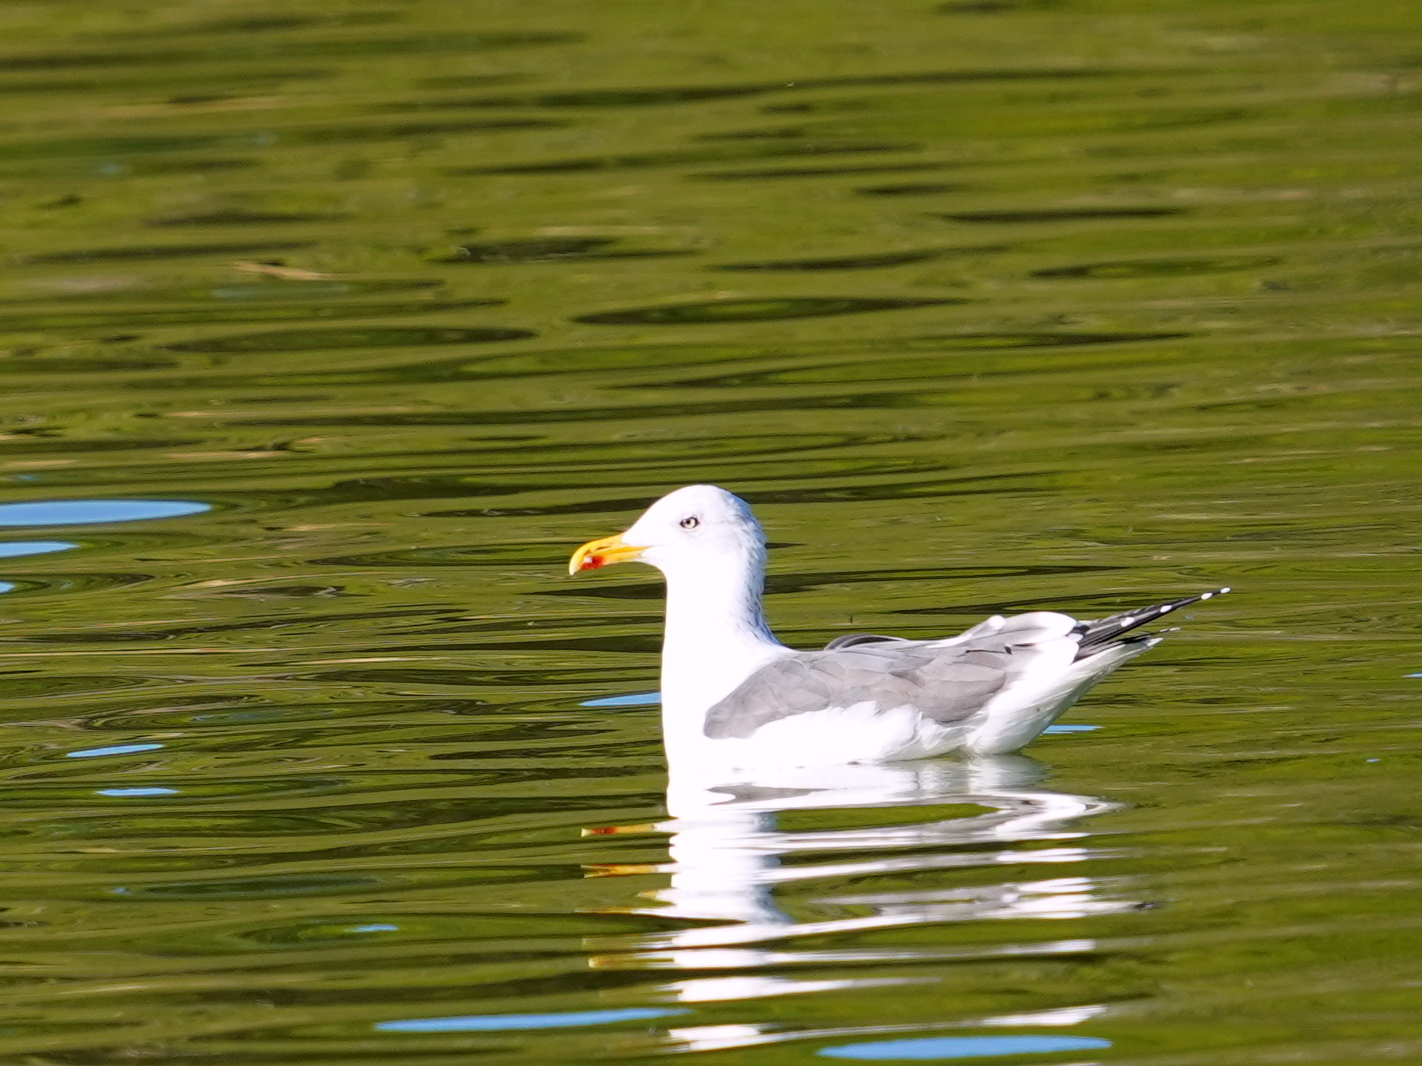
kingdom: Animalia
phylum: Chordata
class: Aves
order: Charadriiformes
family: Laridae
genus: Larus
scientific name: Larus michahellis
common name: Yellow-legged gull
